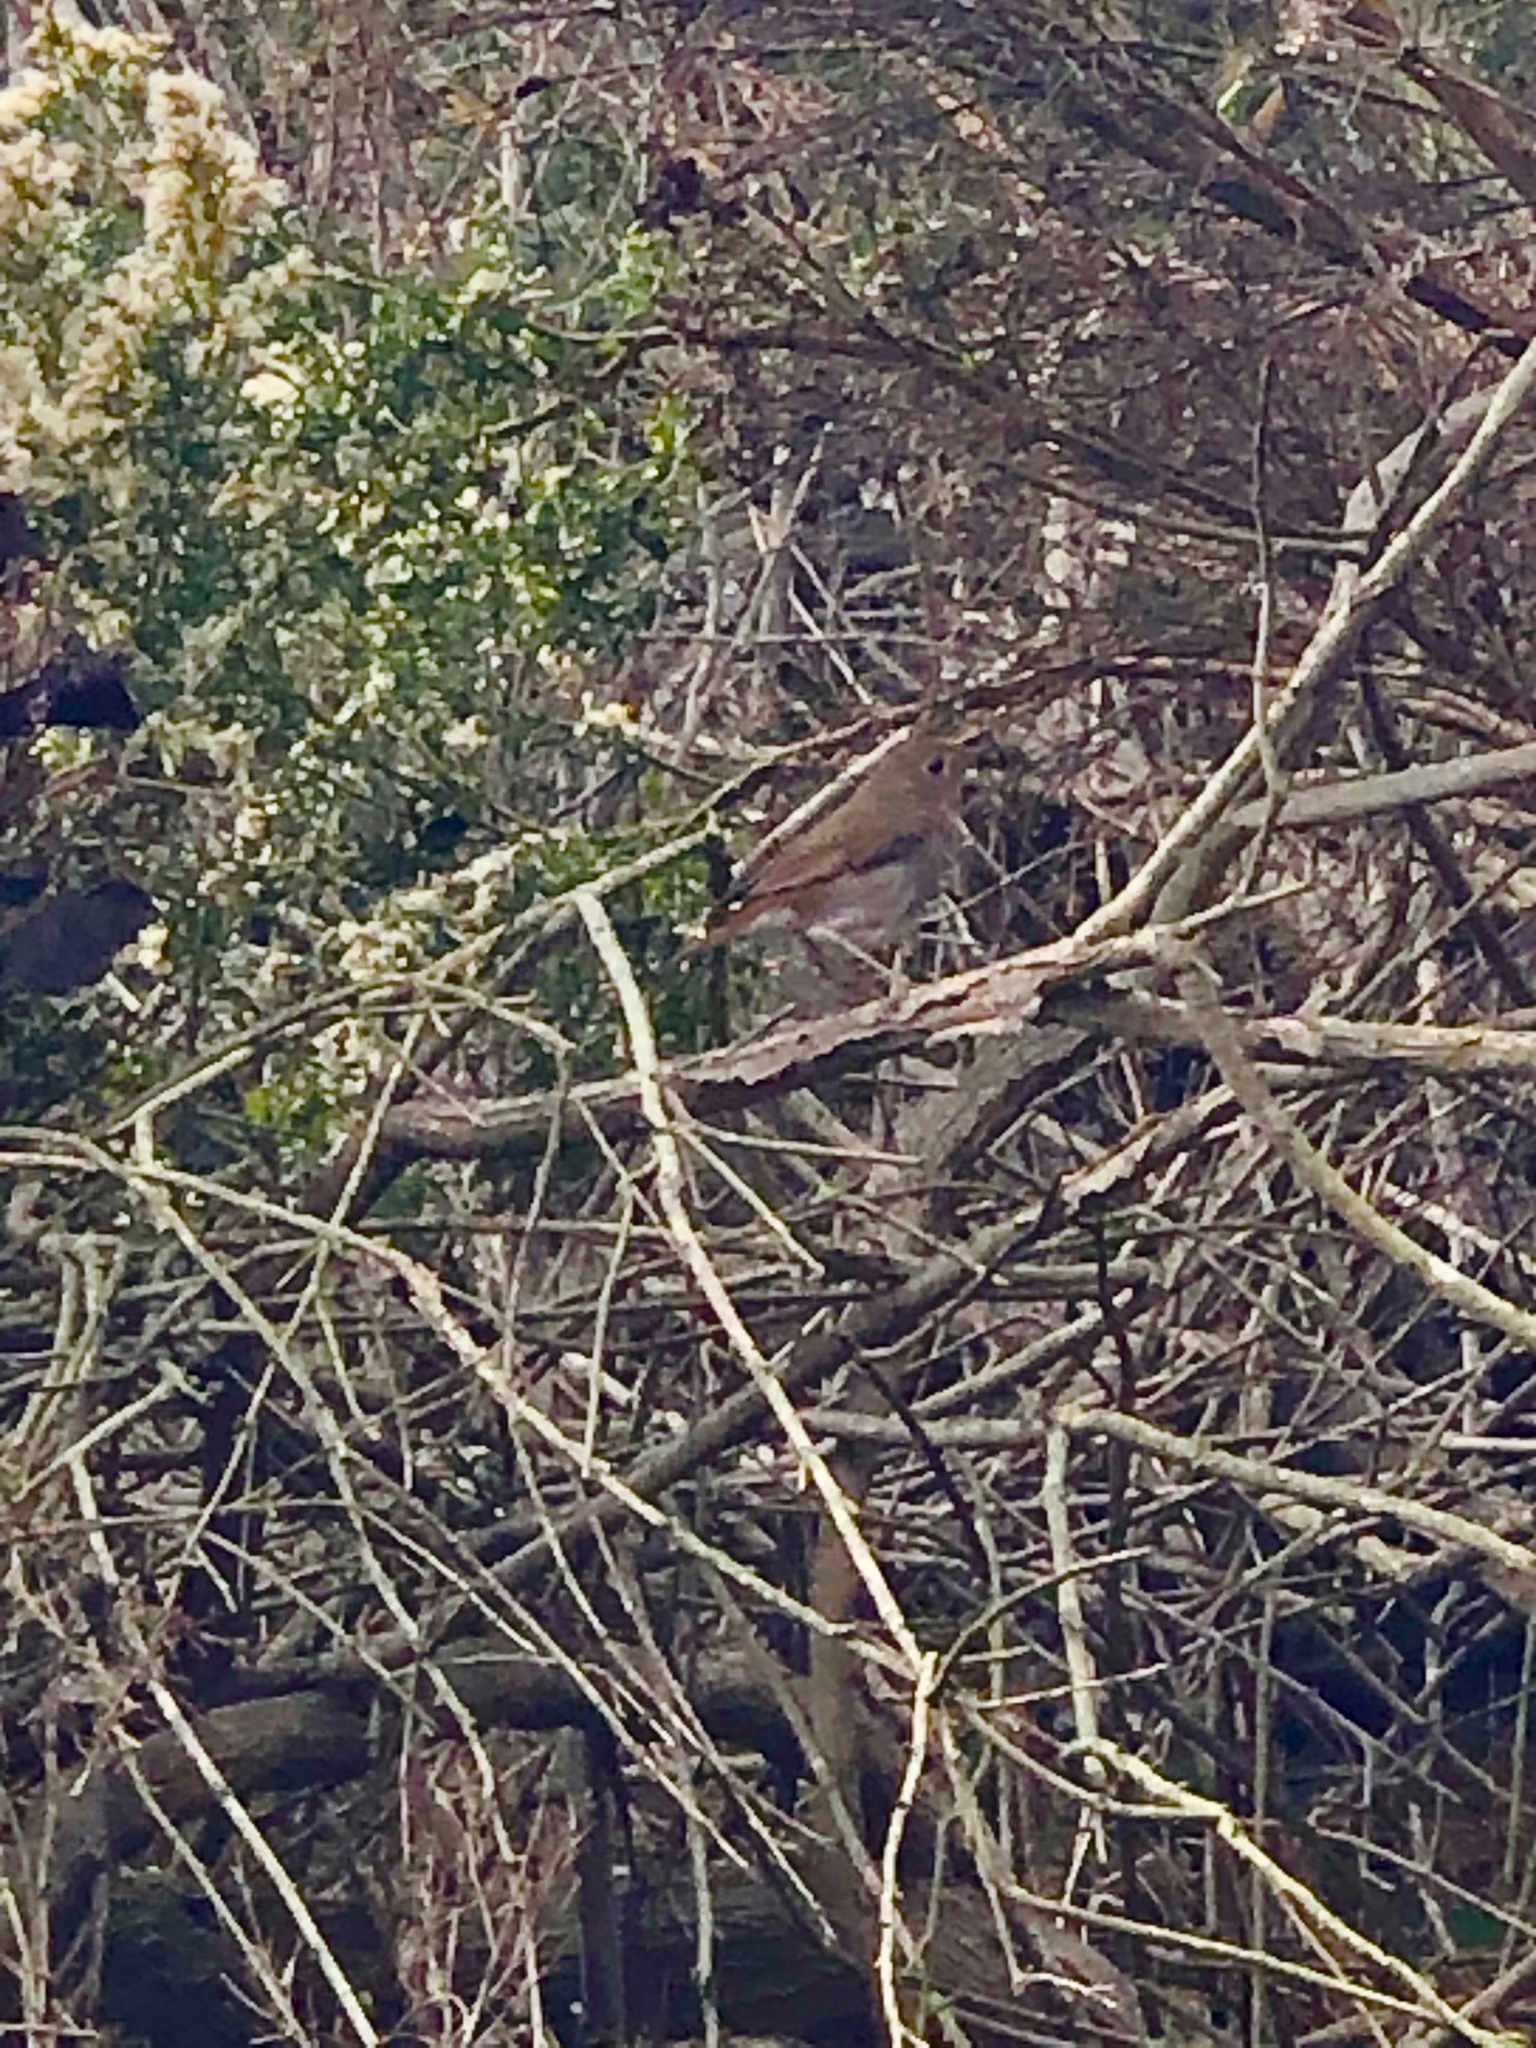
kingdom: Animalia
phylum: Chordata
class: Aves
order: Passeriformes
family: Turdidae
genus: Catharus
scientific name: Catharus guttatus
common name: Hermit thrush
